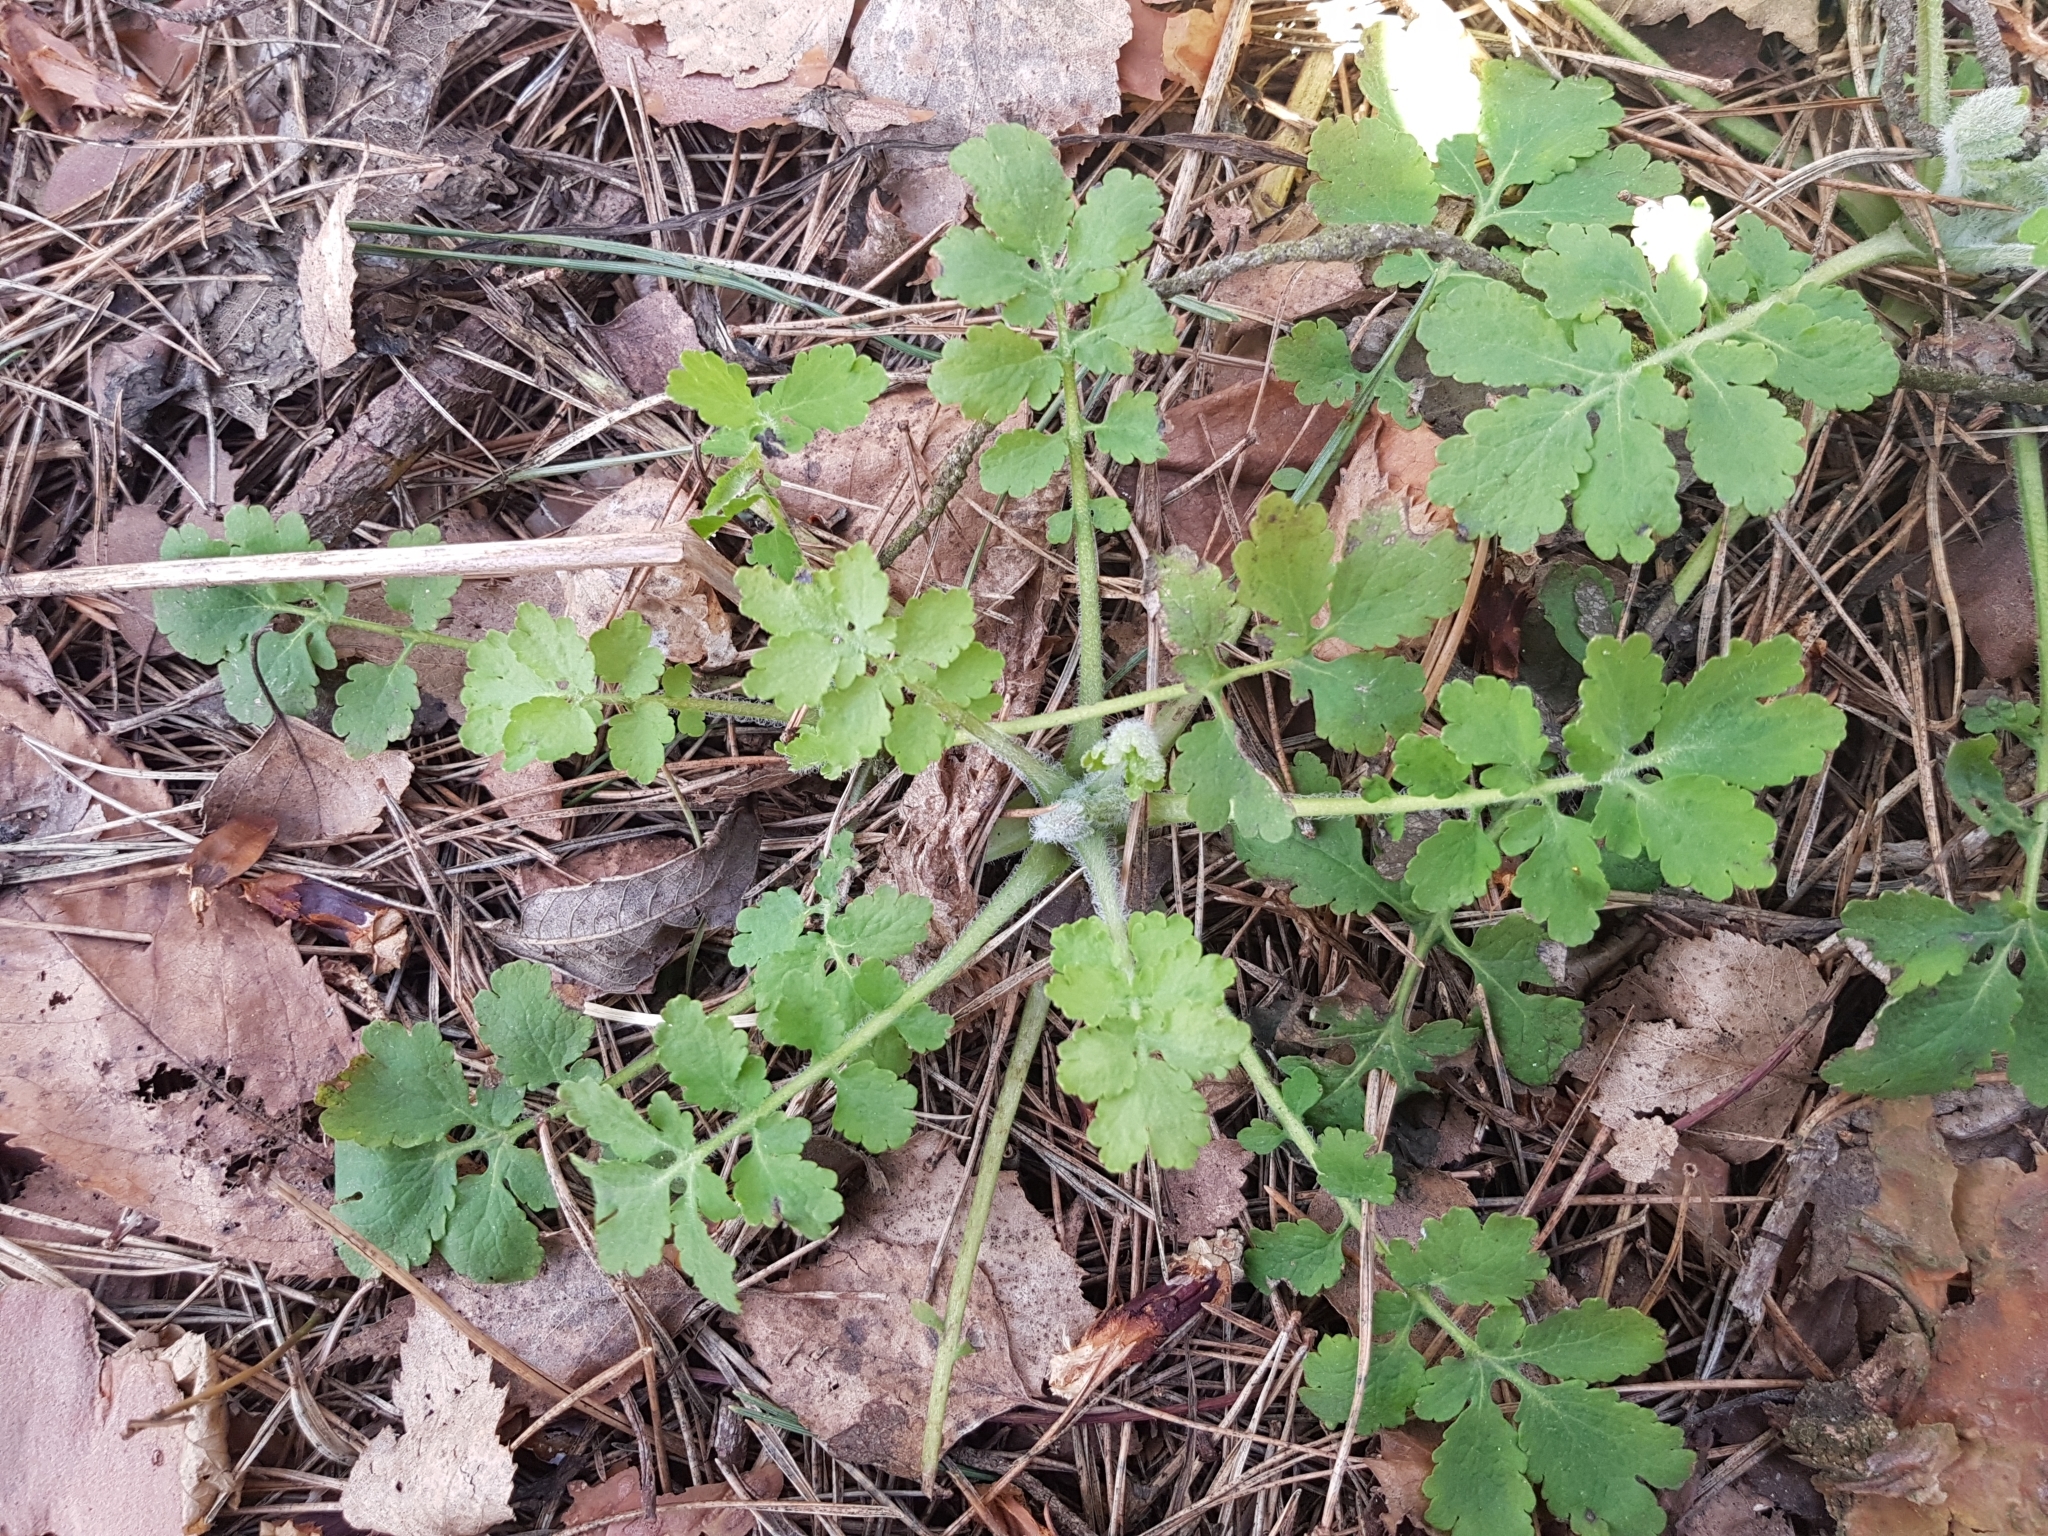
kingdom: Plantae
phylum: Tracheophyta
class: Magnoliopsida
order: Ranunculales
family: Papaveraceae
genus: Chelidonium
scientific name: Chelidonium majus
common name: Greater celandine
